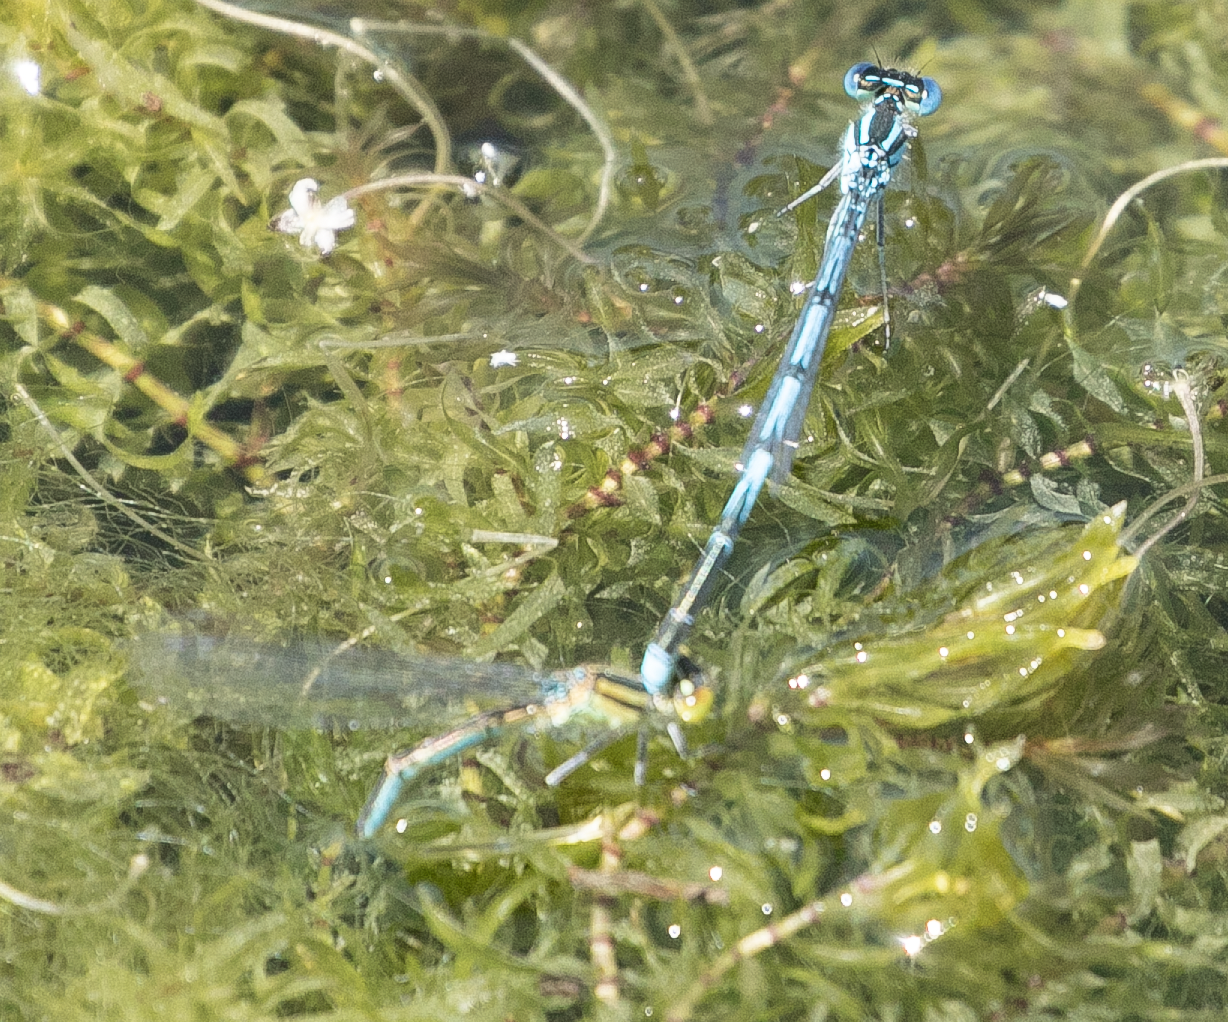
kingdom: Animalia
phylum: Arthropoda
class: Insecta
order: Odonata
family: Coenagrionidae
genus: Erythromma
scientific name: Erythromma lindenii
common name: Blue-eye
